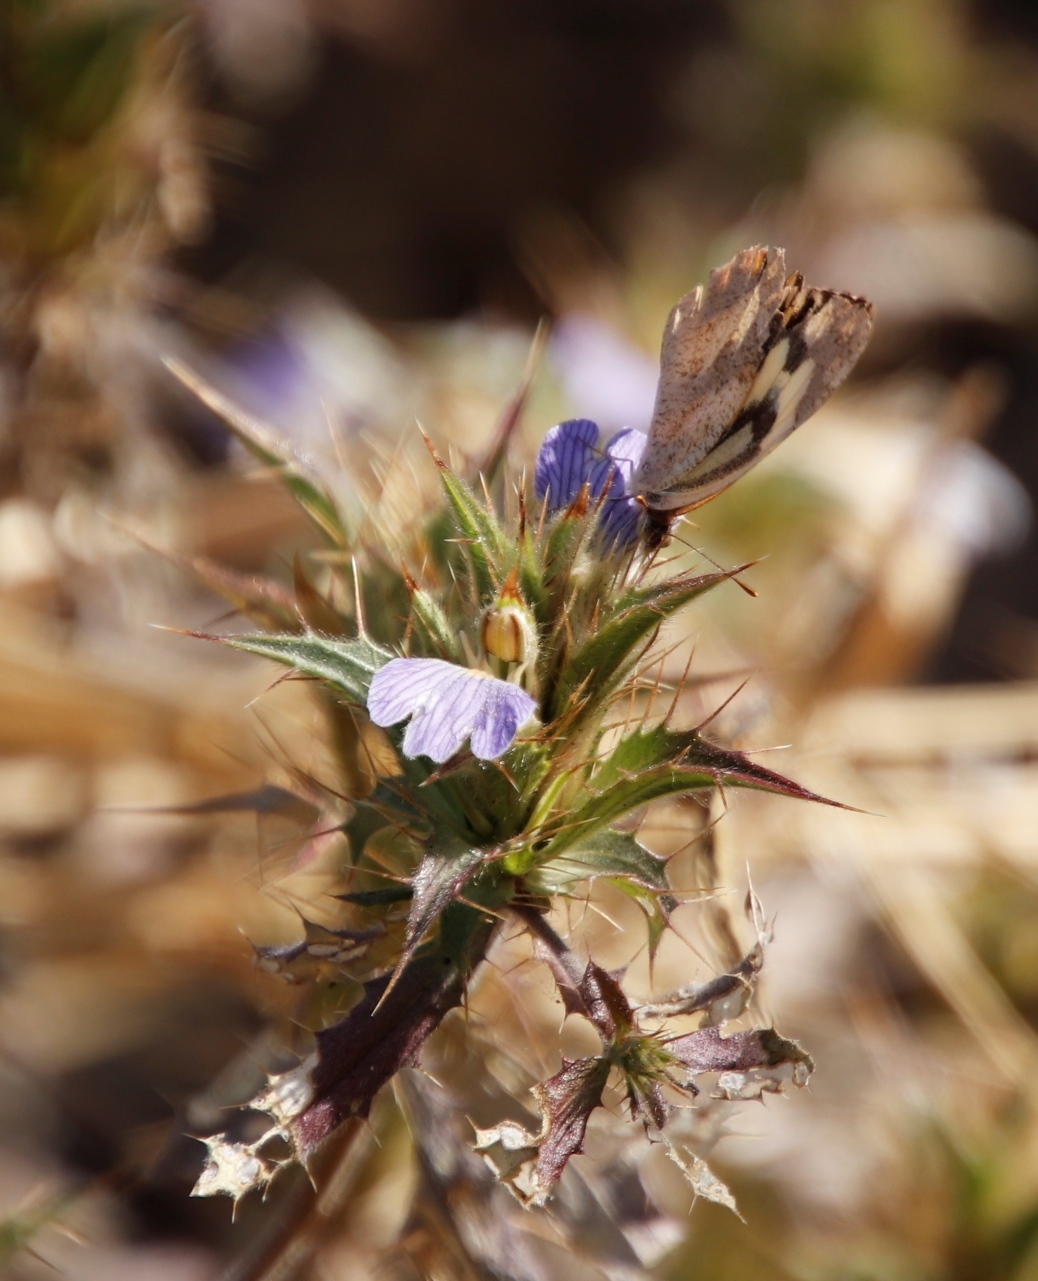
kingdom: Plantae
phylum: Tracheophyta
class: Magnoliopsida
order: Lamiales
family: Acanthaceae
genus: Blepharis
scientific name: Blepharis obmitrata
